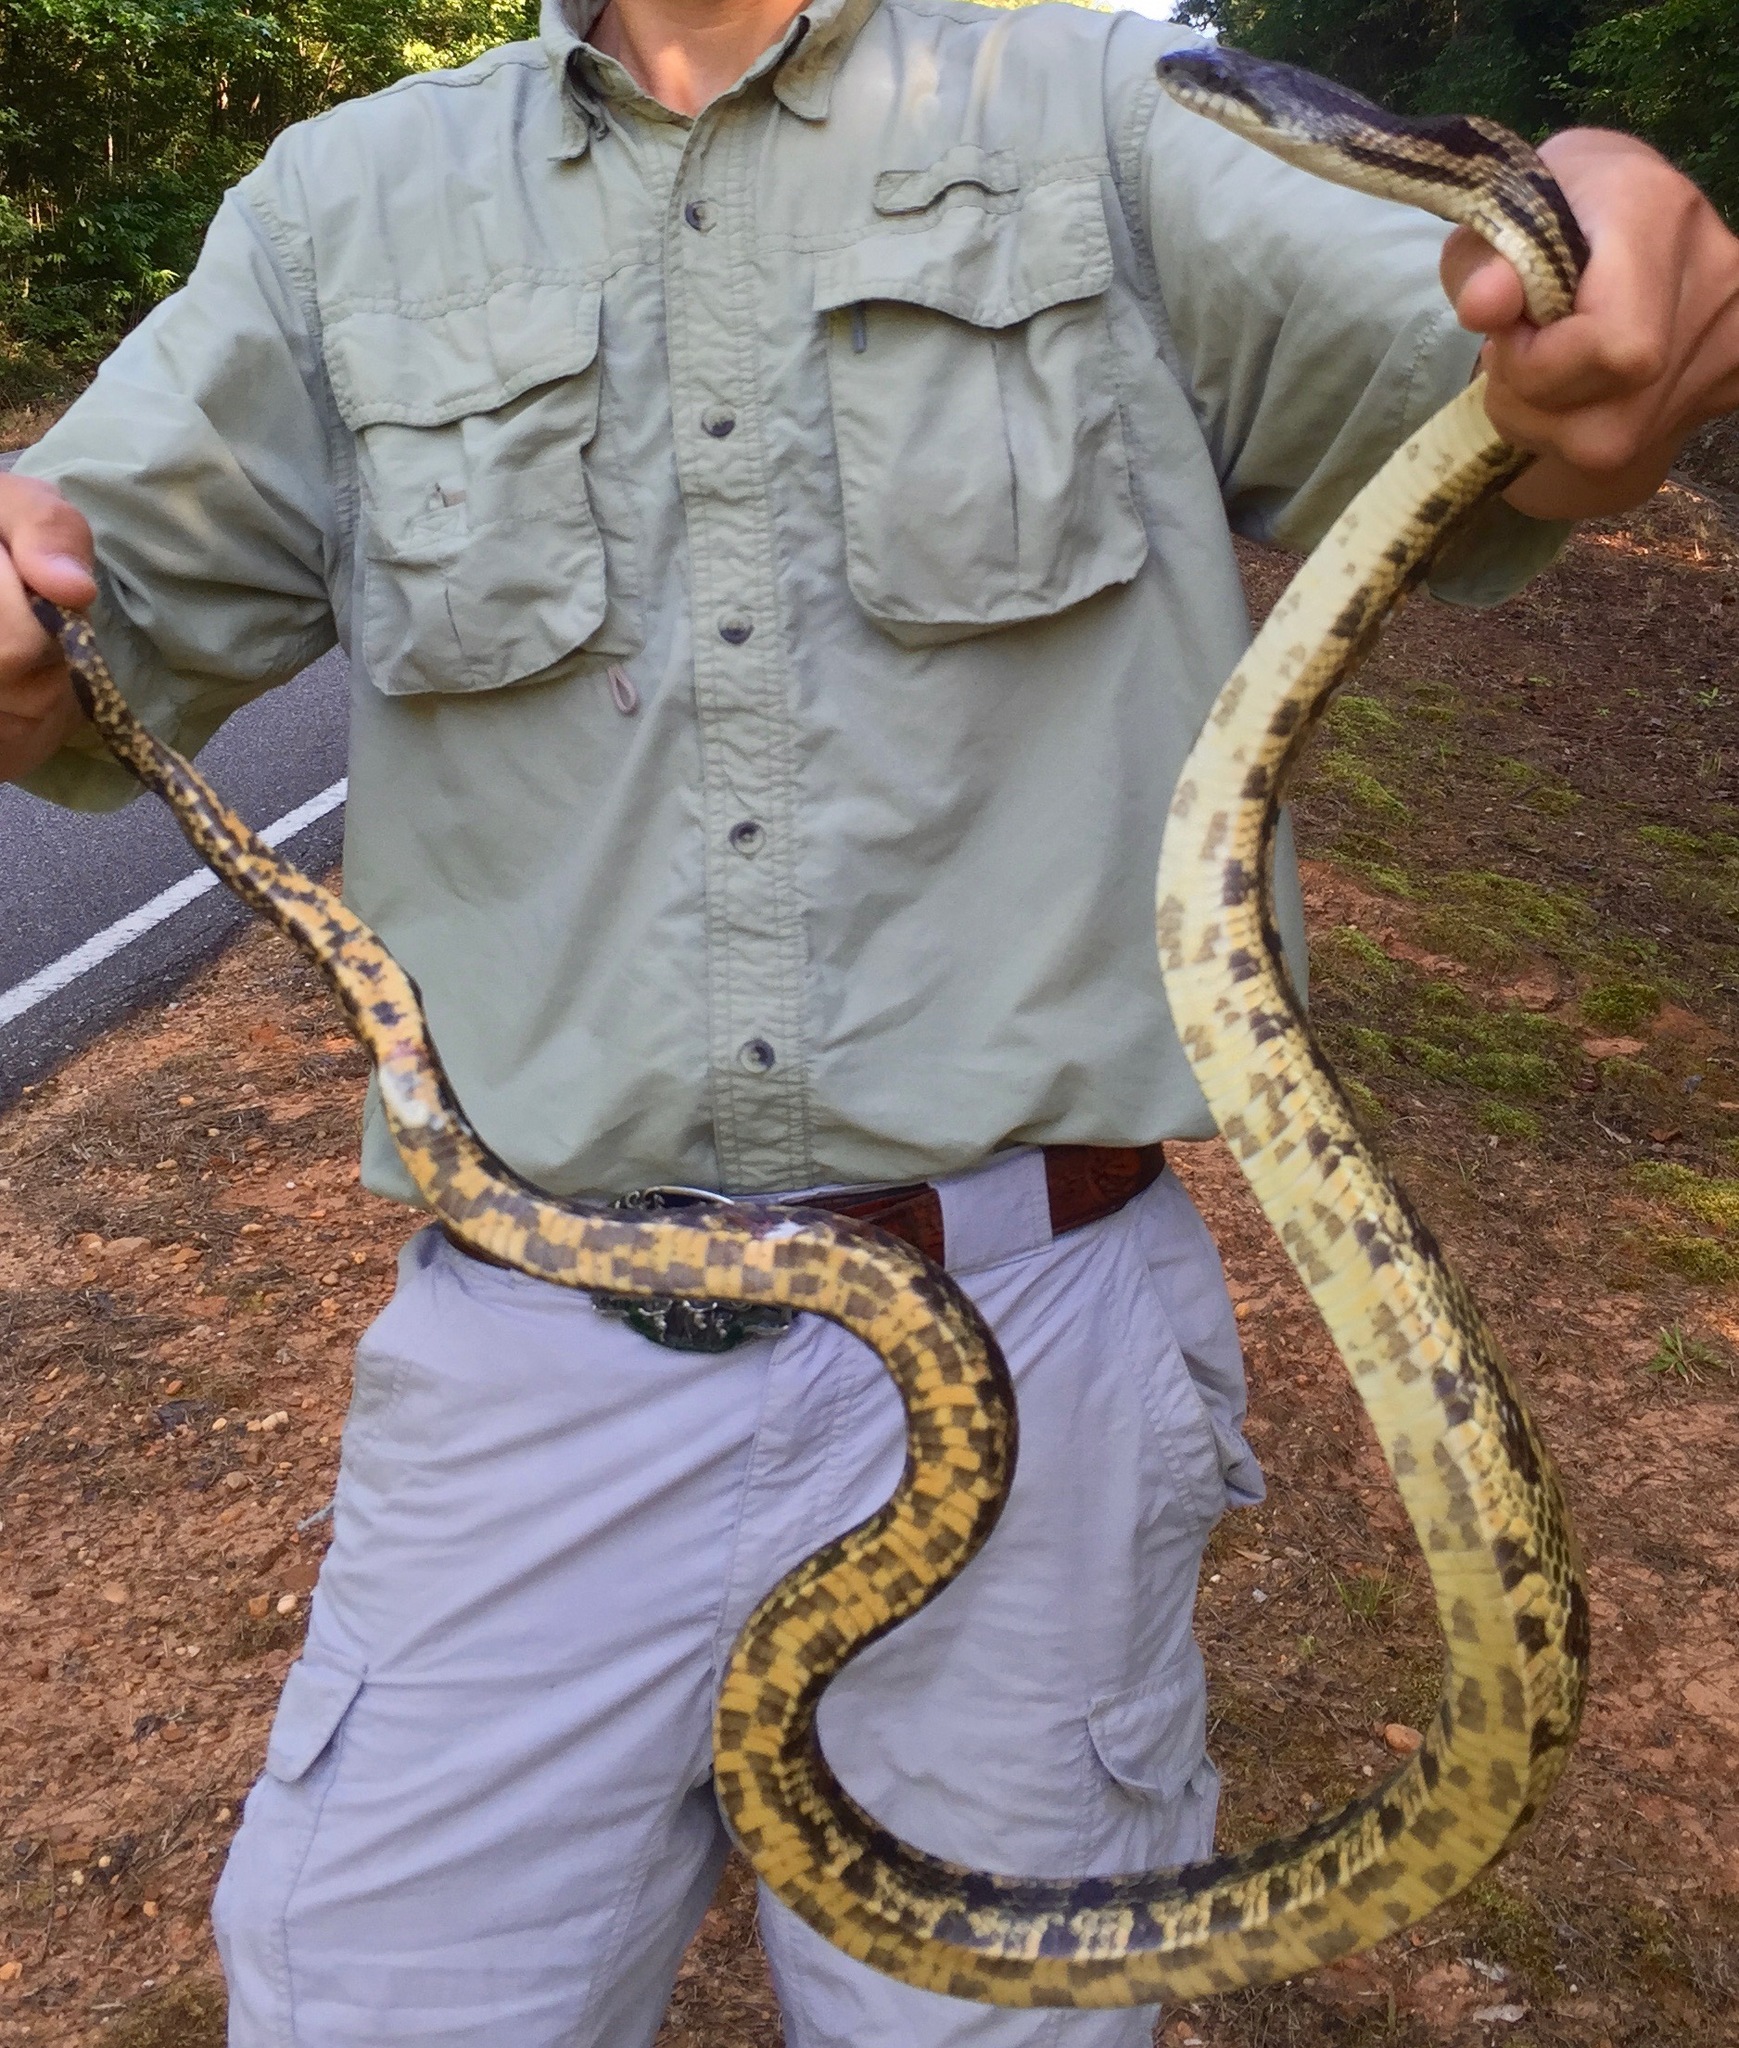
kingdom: Animalia
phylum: Chordata
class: Squamata
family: Colubridae
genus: Pantherophis
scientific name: Pantherophis spiloides
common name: Gray rat snake
